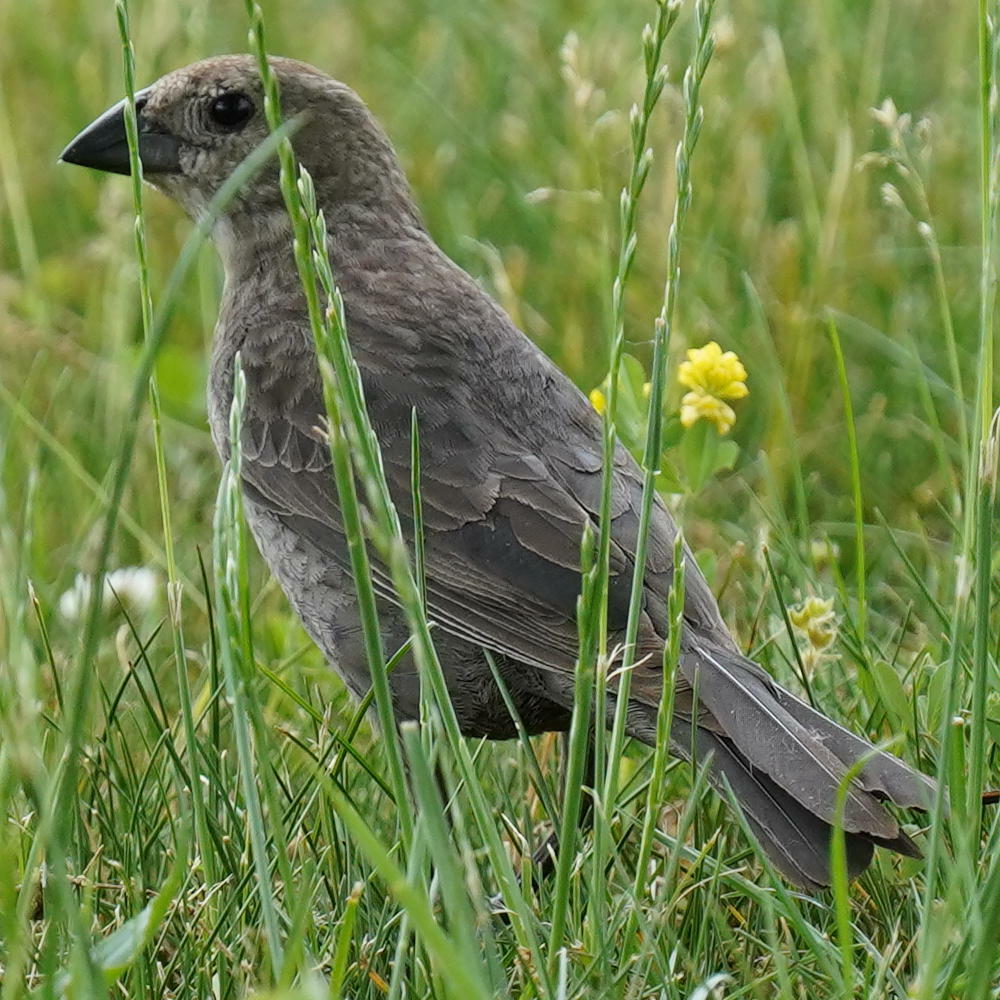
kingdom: Animalia
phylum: Chordata
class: Aves
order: Passeriformes
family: Icteridae
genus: Molothrus
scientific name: Molothrus ater
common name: Brown-headed cowbird
